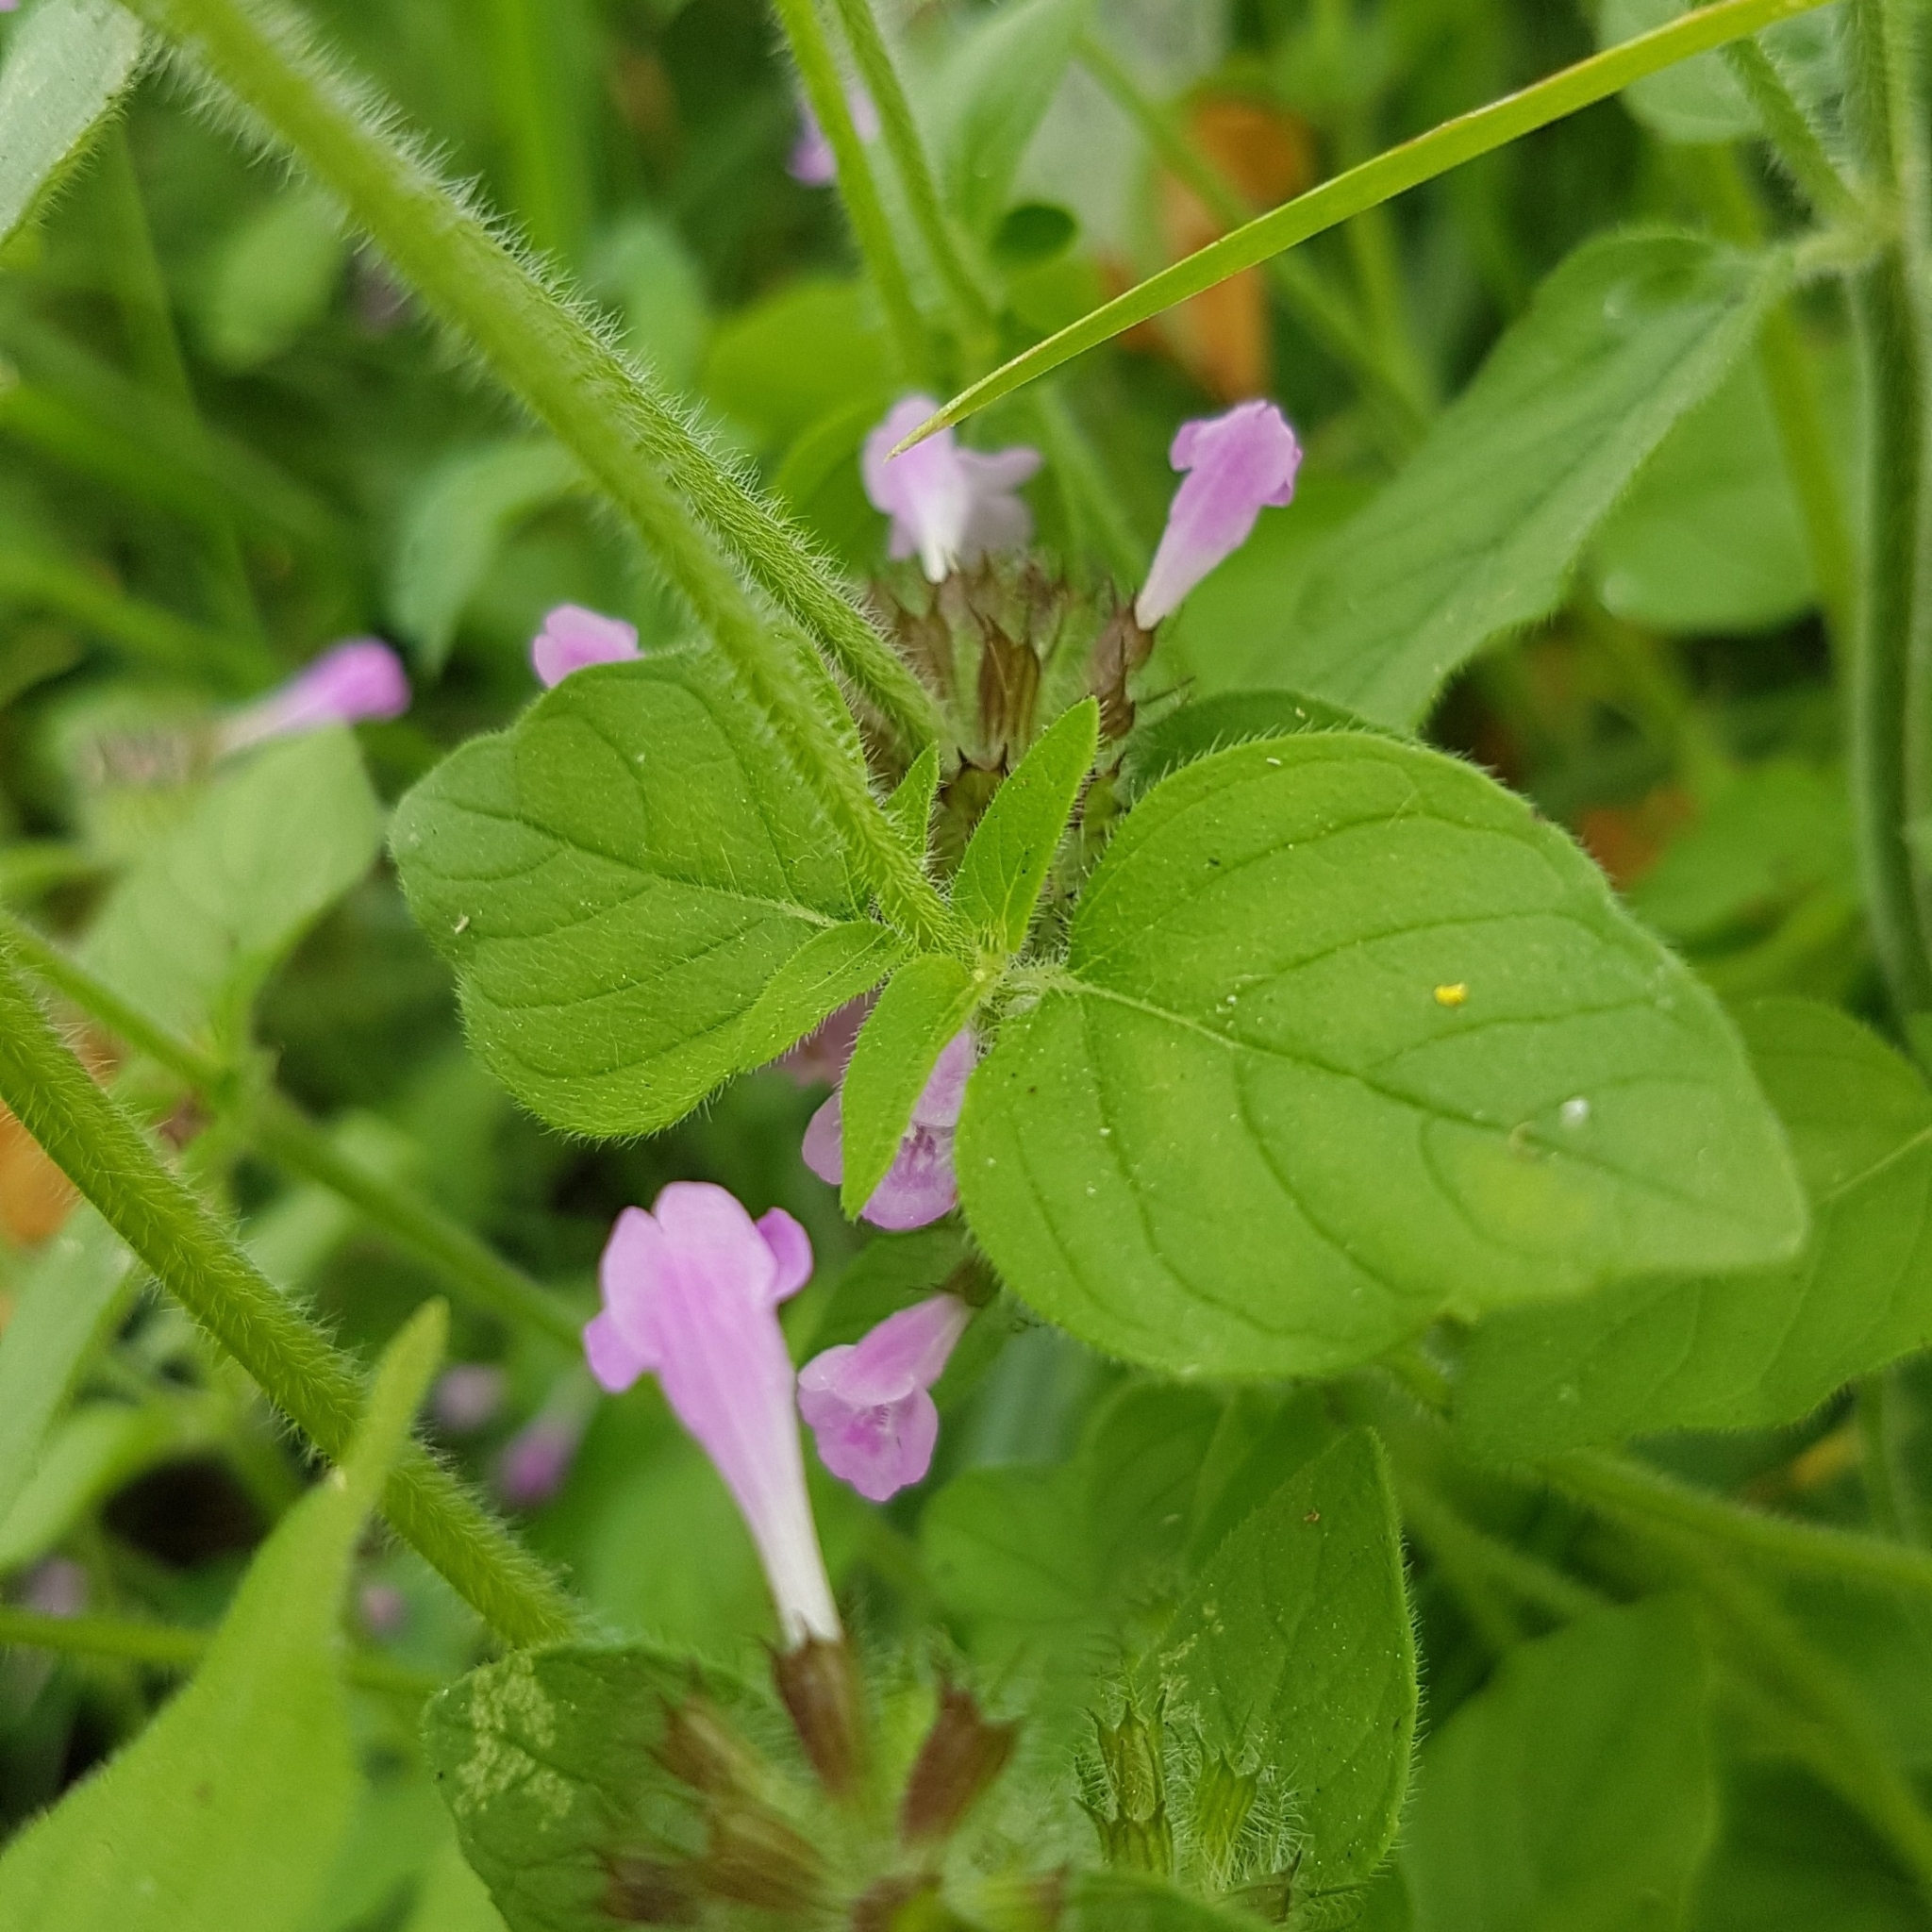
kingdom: Plantae
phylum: Tracheophyta
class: Magnoliopsida
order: Lamiales
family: Lamiaceae
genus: Clinopodium
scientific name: Clinopodium vulgare
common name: Wild basil
